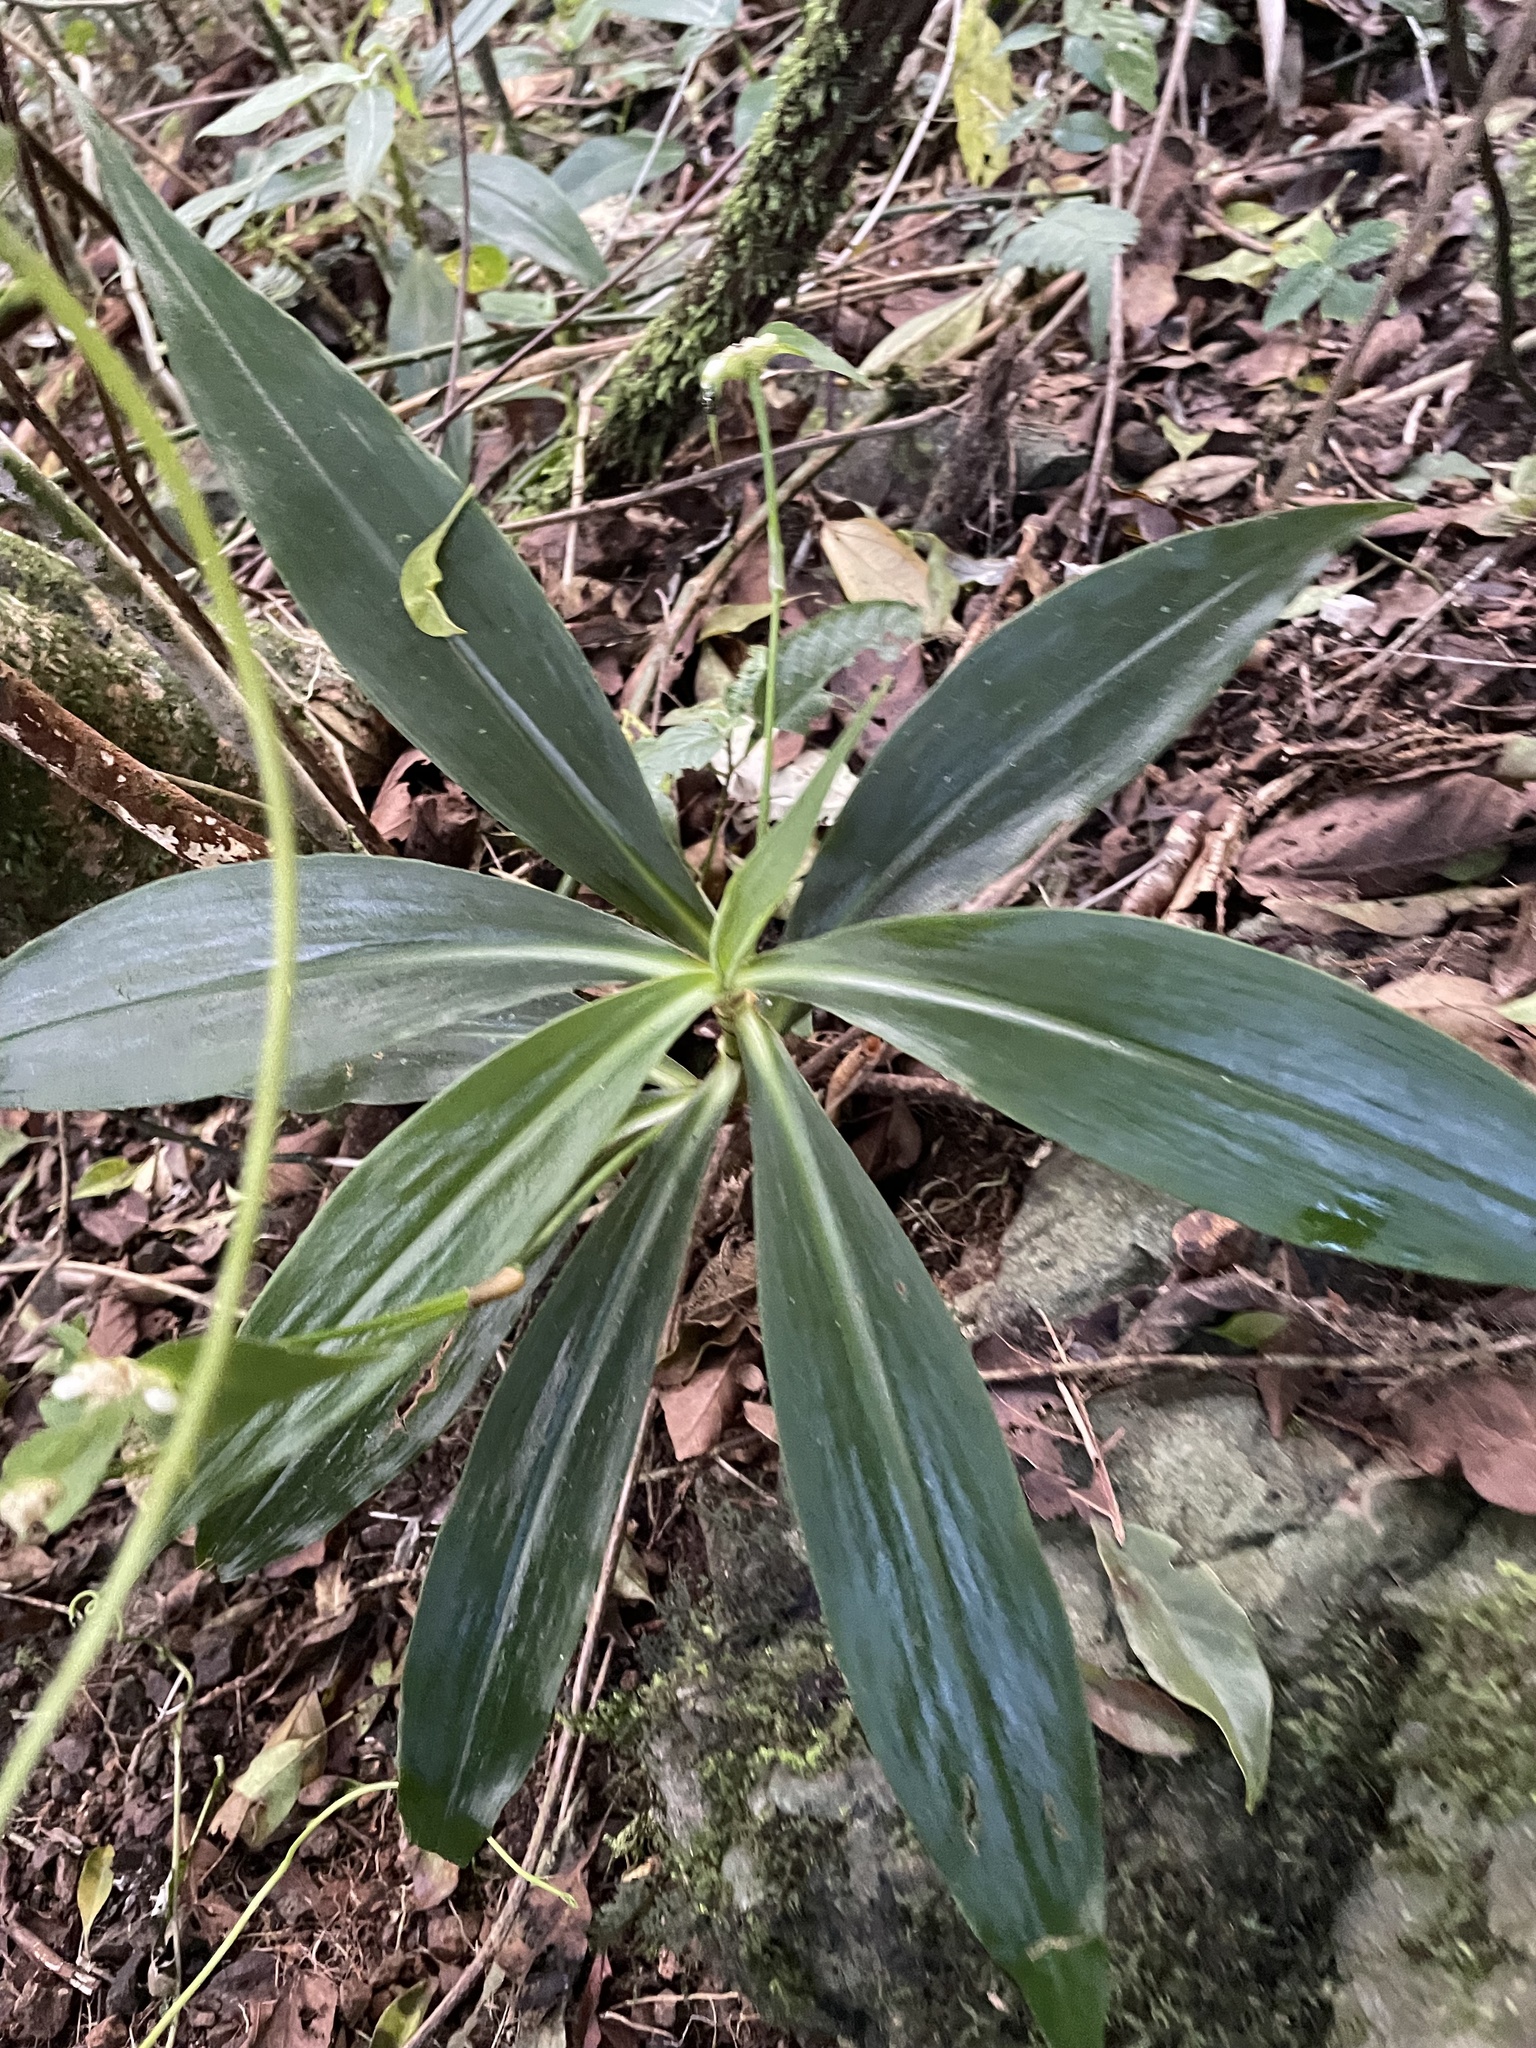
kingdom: Plantae
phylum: Tracheophyta
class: Liliopsida
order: Commelinales
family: Commelinaceae
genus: Tradescantia
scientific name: Tradescantia zanonia
